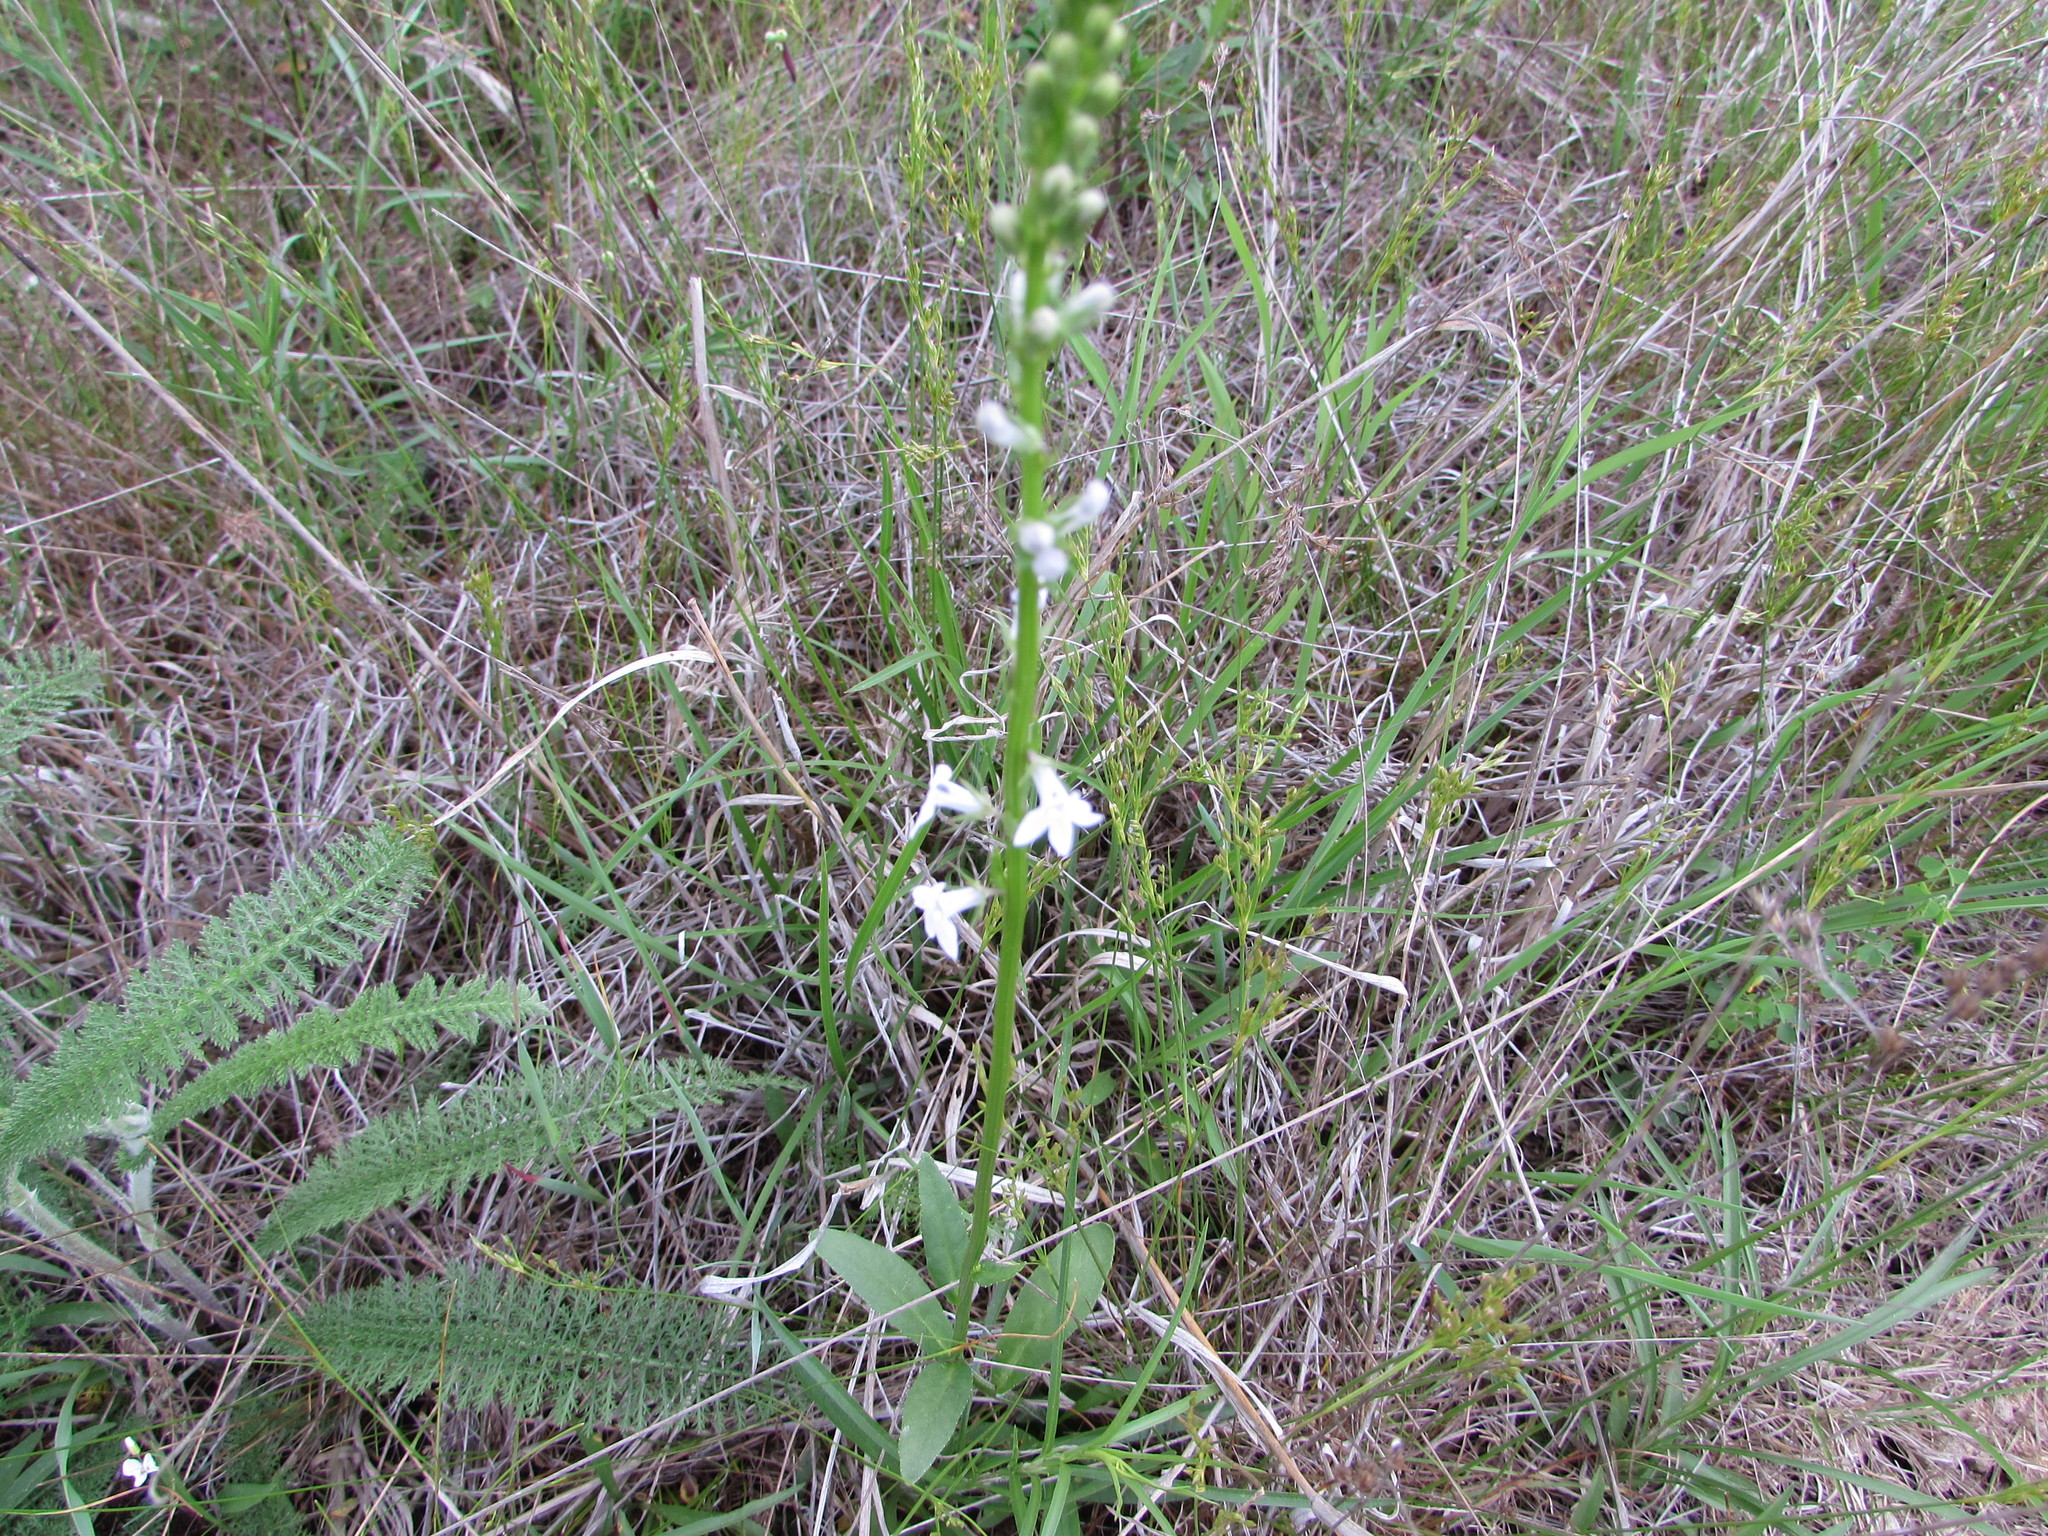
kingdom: Plantae
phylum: Tracheophyta
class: Magnoliopsida
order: Asterales
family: Campanulaceae
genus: Lobelia
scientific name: Lobelia spicata
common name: Pale-spike lobelia
